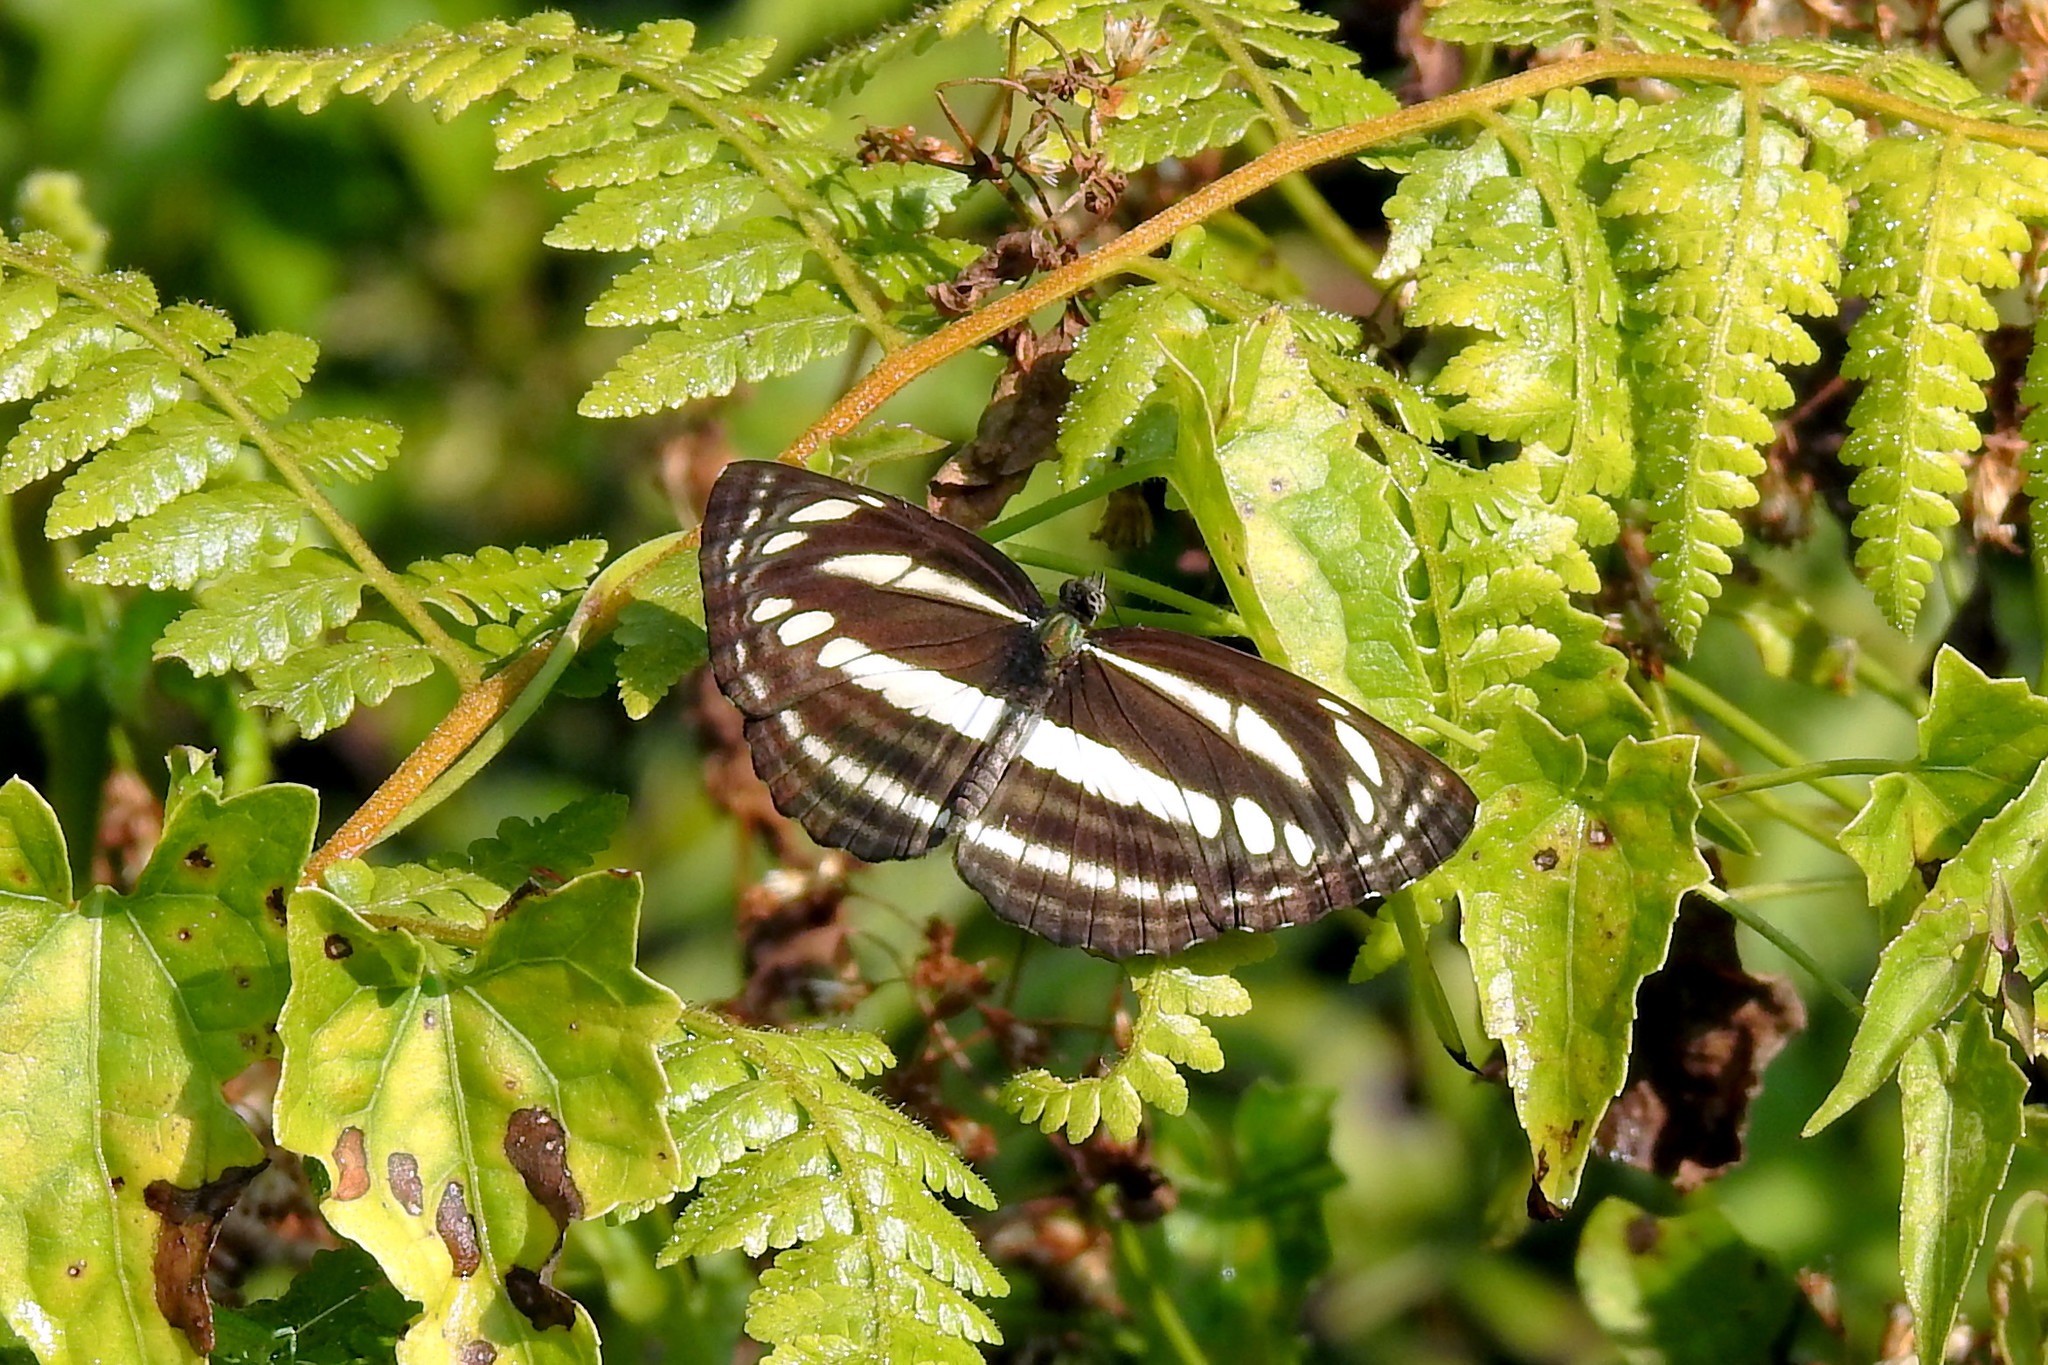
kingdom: Animalia
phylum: Arthropoda
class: Insecta
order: Lepidoptera
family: Nymphalidae
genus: Neptis
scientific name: Neptis clinia
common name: Southern sullied sailer
